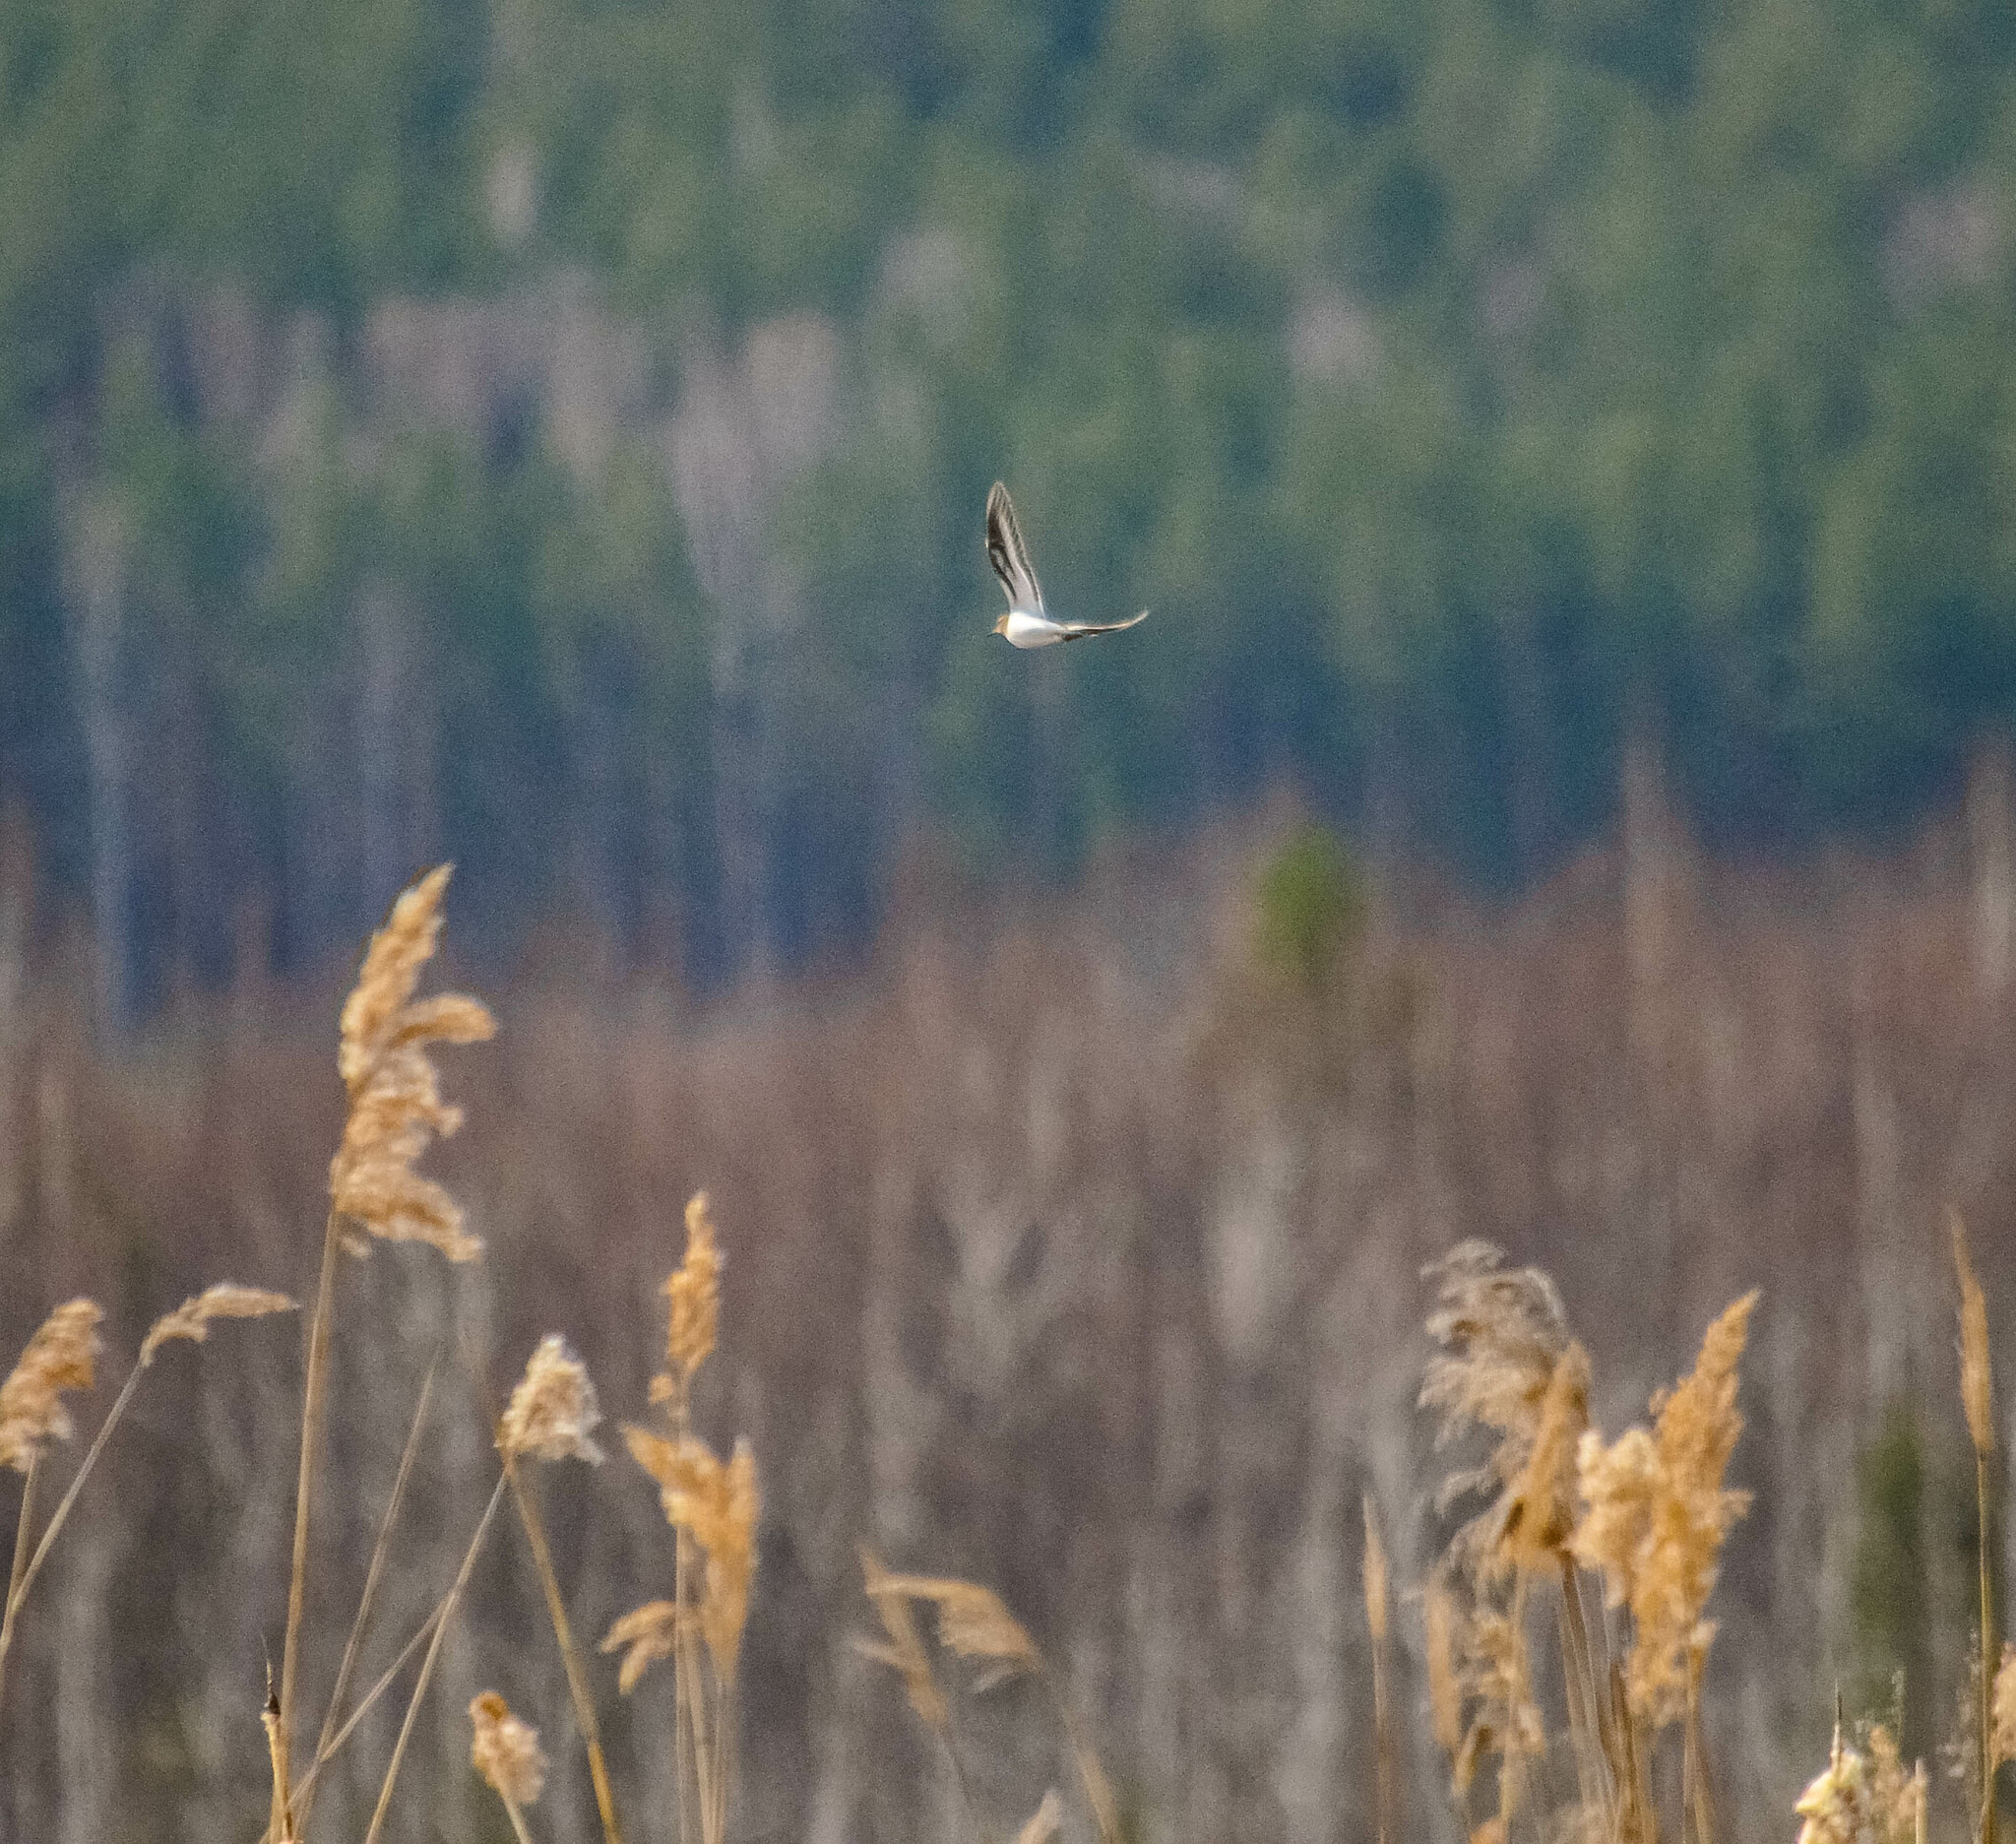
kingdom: Animalia
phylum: Chordata
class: Aves
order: Charadriiformes
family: Scolopacidae
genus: Actitis
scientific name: Actitis hypoleucos
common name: Common sandpiper
